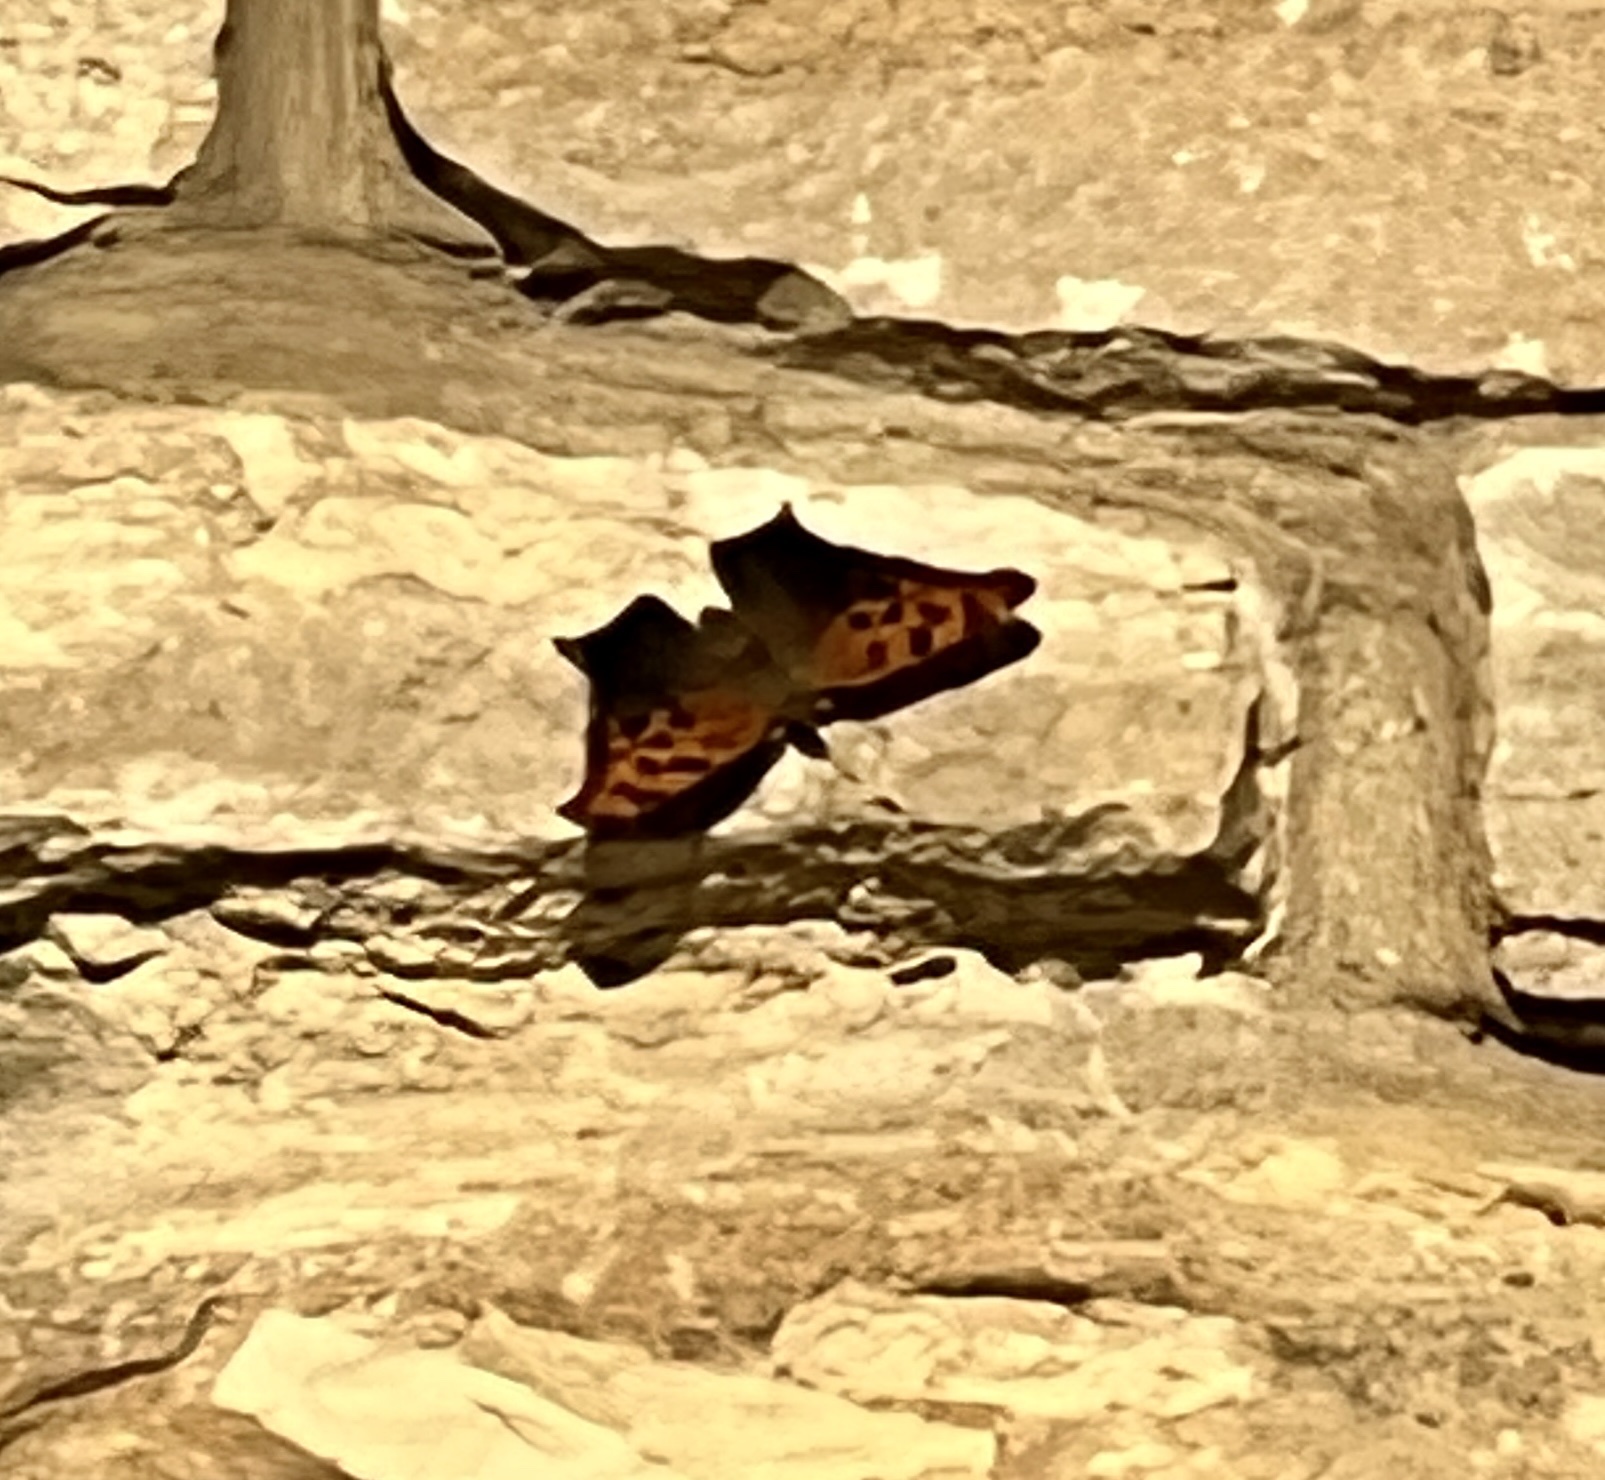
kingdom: Animalia
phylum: Arthropoda
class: Insecta
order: Lepidoptera
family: Nymphalidae
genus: Polygonia
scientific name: Polygonia interrogationis
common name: Question mark
